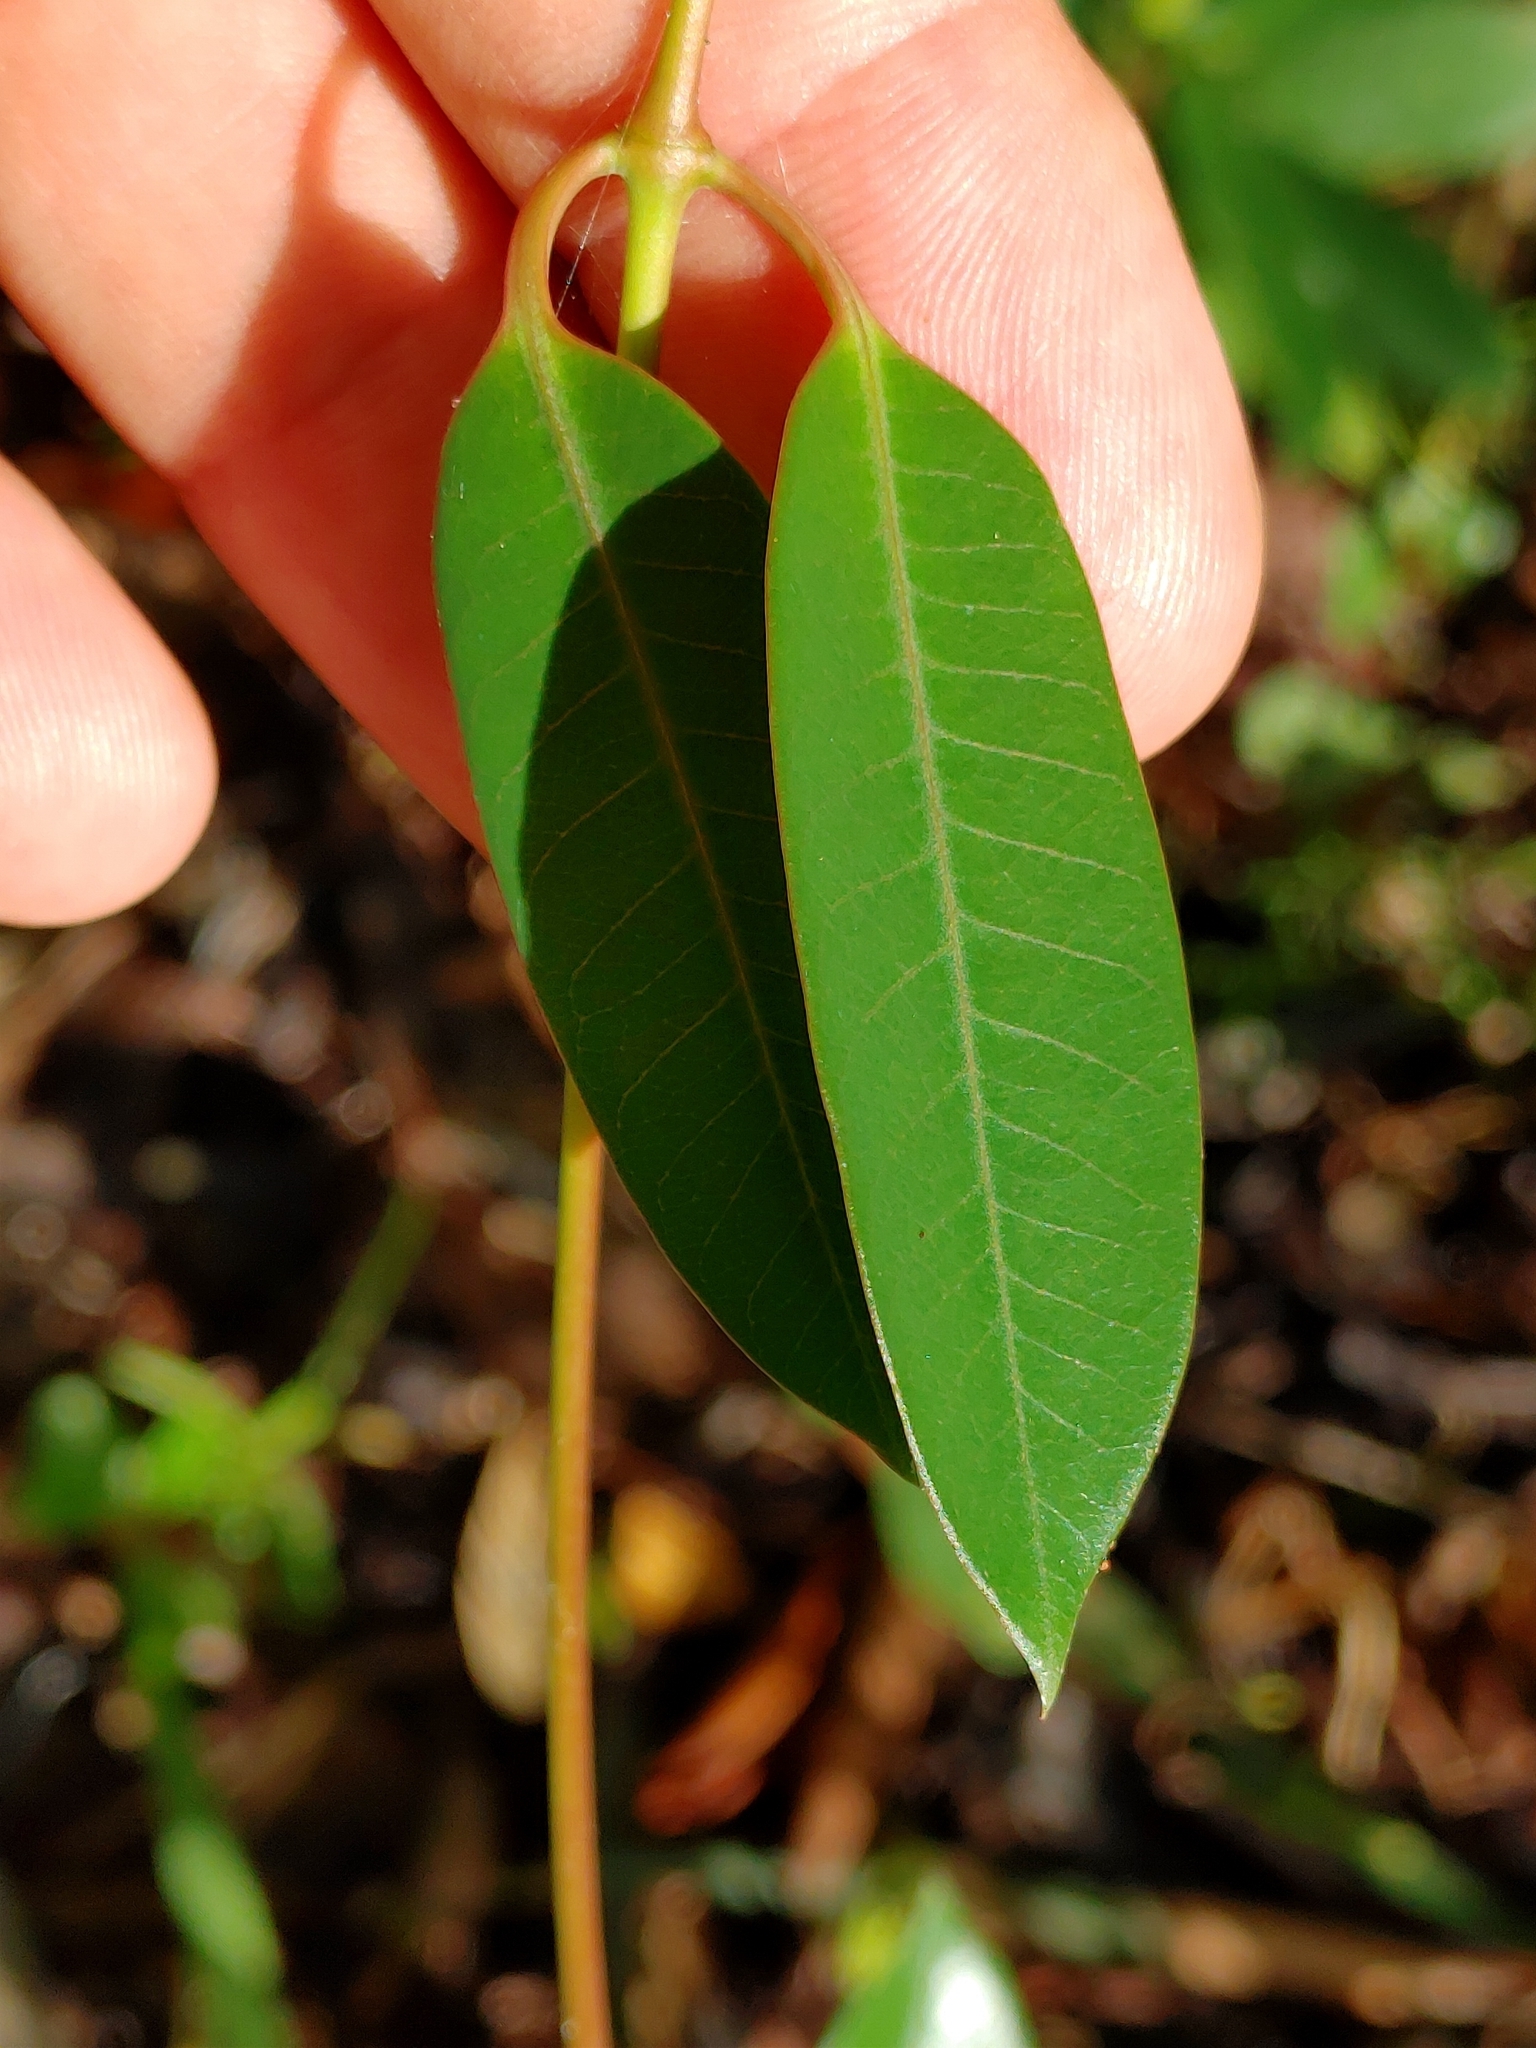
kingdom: Plantae
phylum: Tracheophyta
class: Magnoliopsida
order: Gentianales
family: Apocynaceae
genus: Rhabdadenia
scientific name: Rhabdadenia biflora
